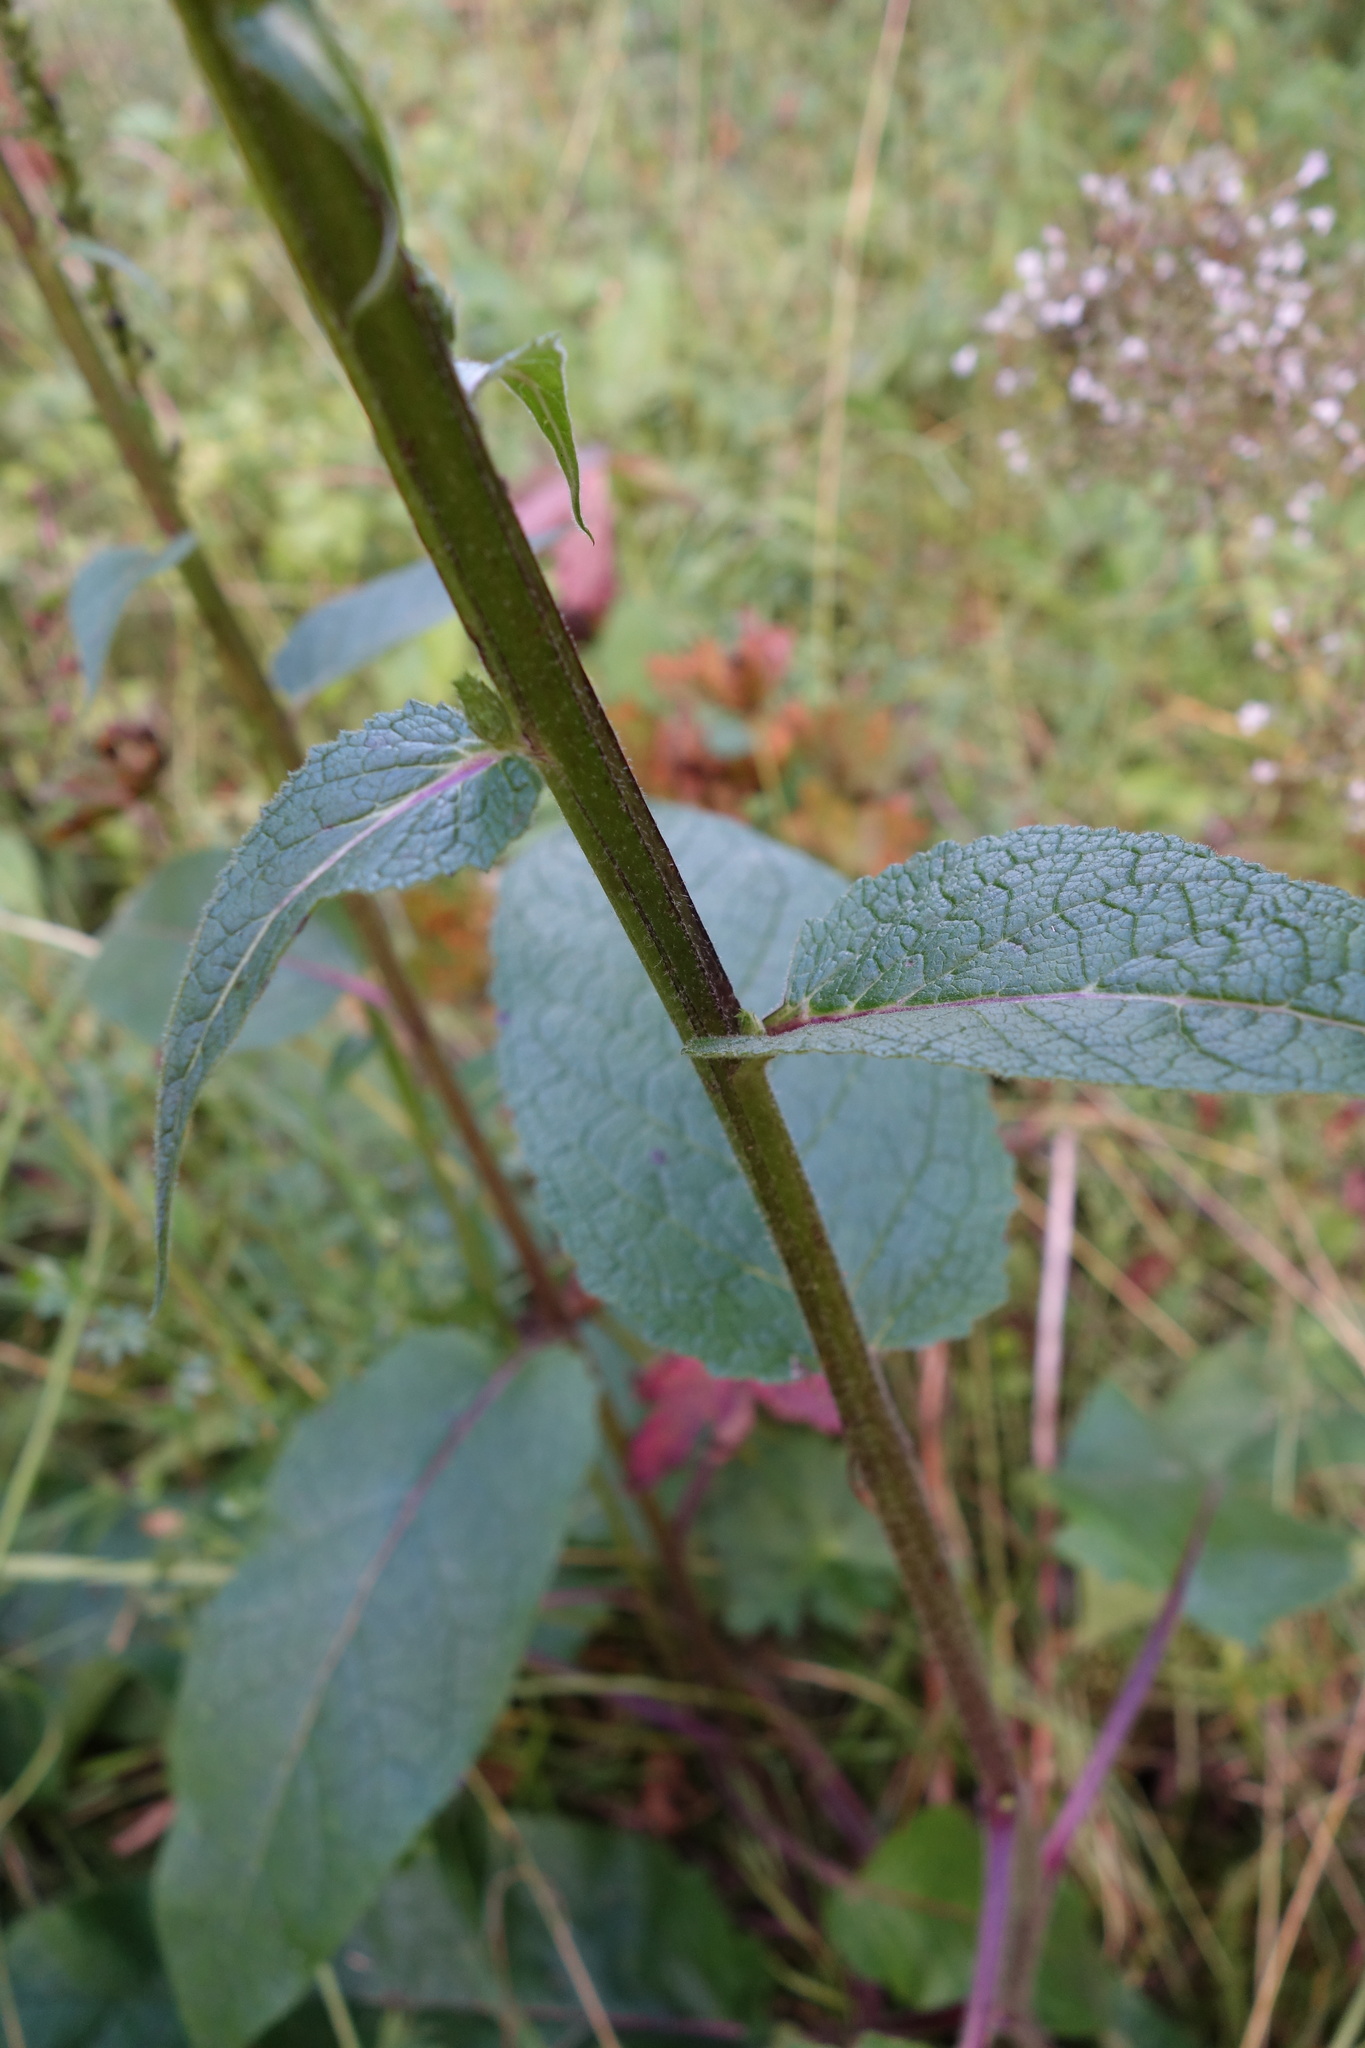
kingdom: Plantae
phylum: Tracheophyta
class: Magnoliopsida
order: Lamiales
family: Scrophulariaceae
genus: Verbascum
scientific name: Verbascum nigrum
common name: Dark mullein
